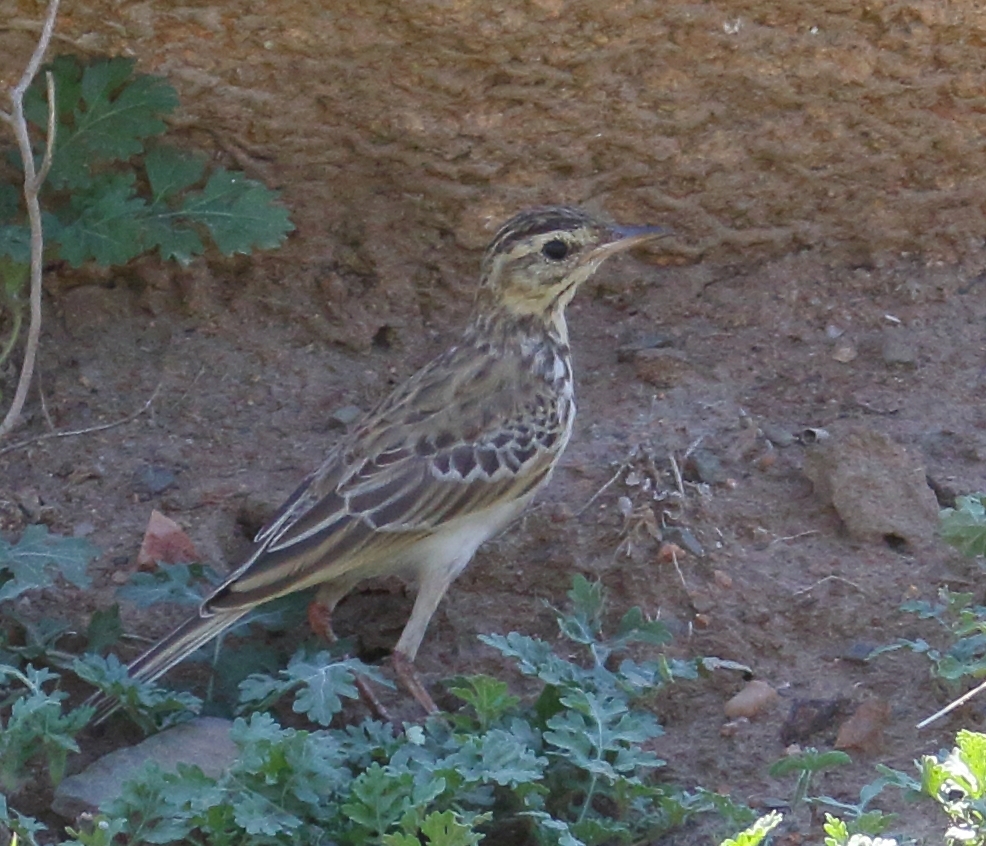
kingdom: Animalia
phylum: Chordata
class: Aves
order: Passeriformes
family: Motacillidae
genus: Anthus
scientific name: Anthus cinnamomeus
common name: African pipit
